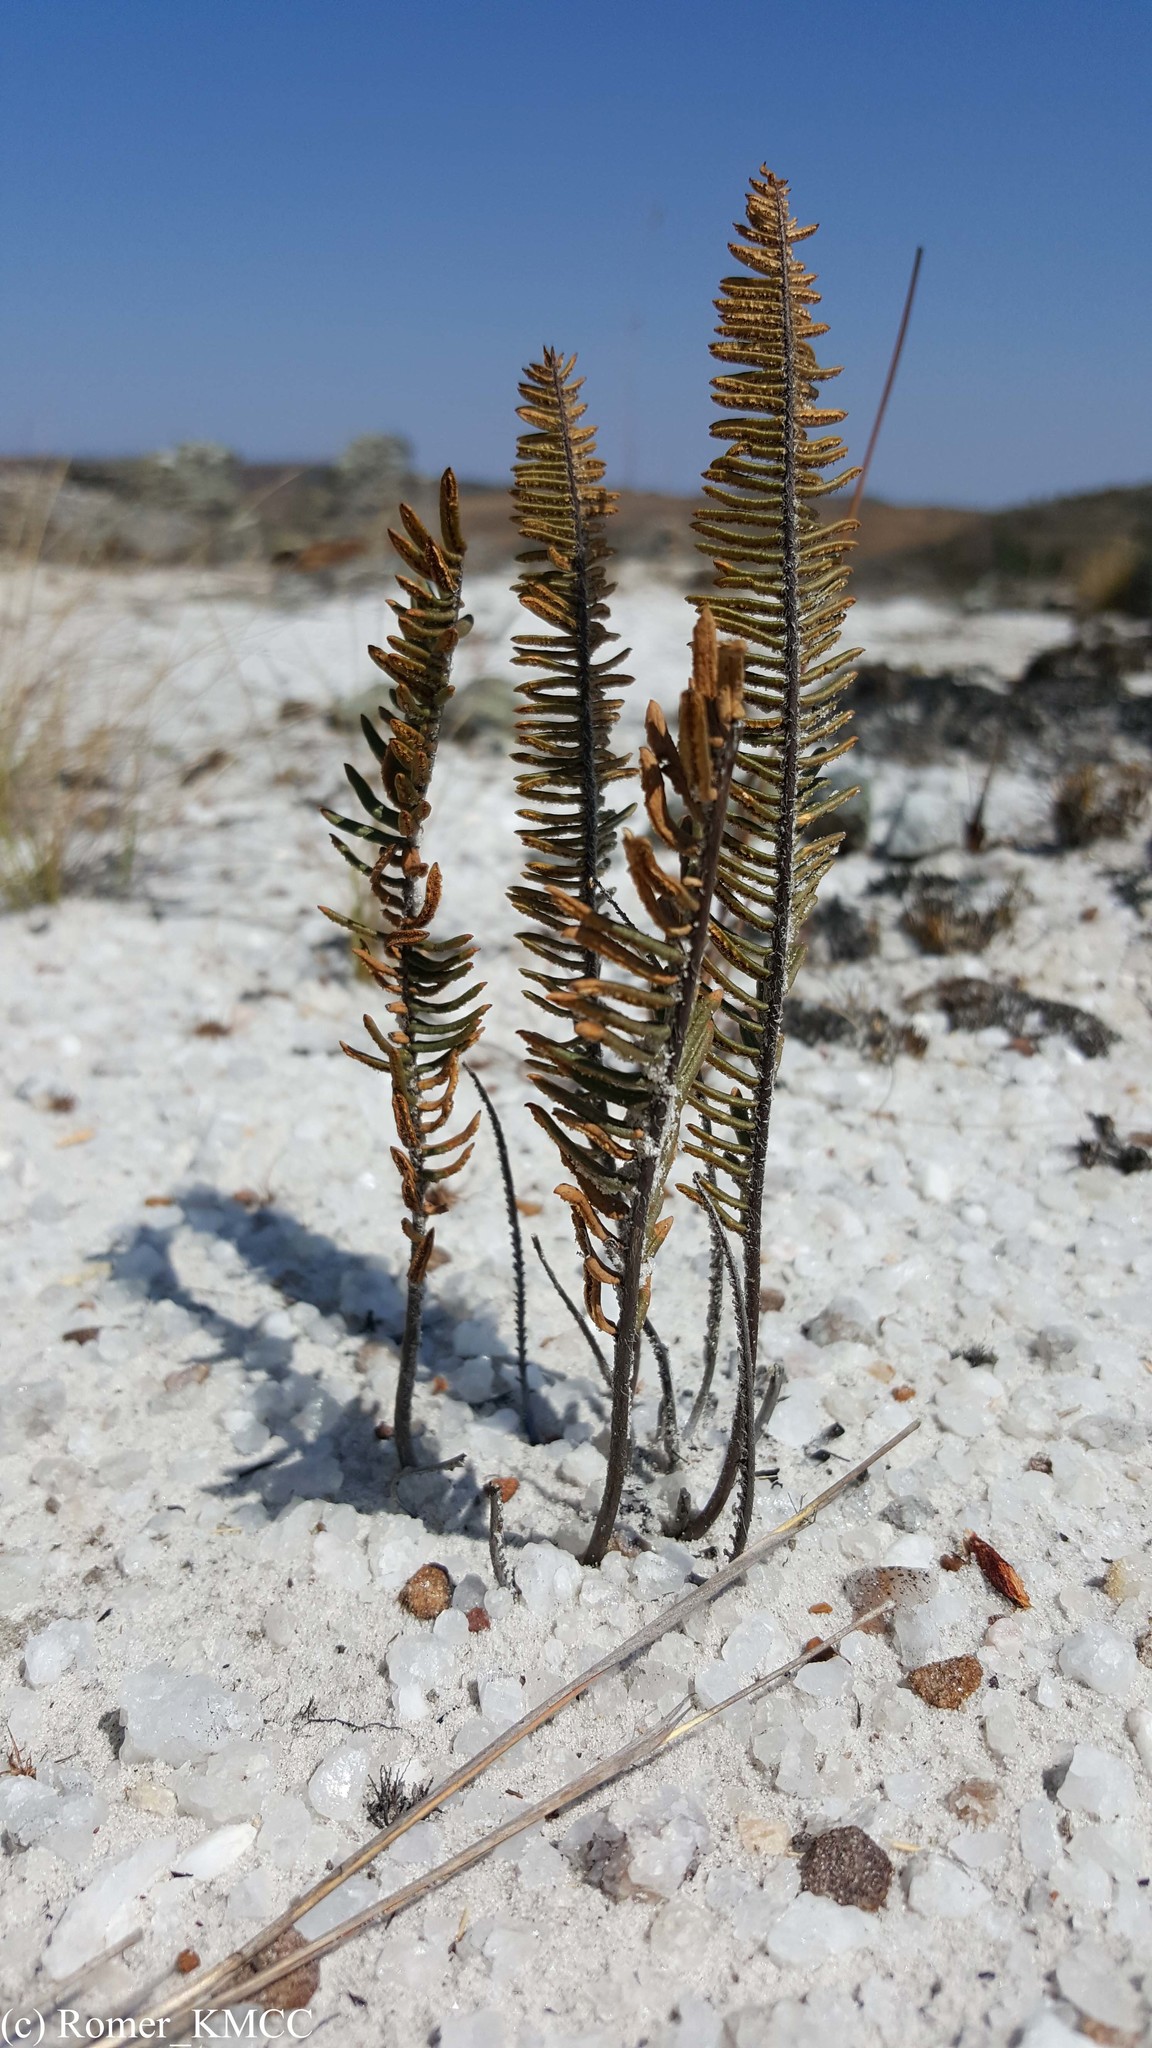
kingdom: Plantae
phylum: Tracheophyta
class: Polypodiopsida
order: Polypodiales
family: Pteridaceae
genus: Pellaea
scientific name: Pellaea pectiniformis
